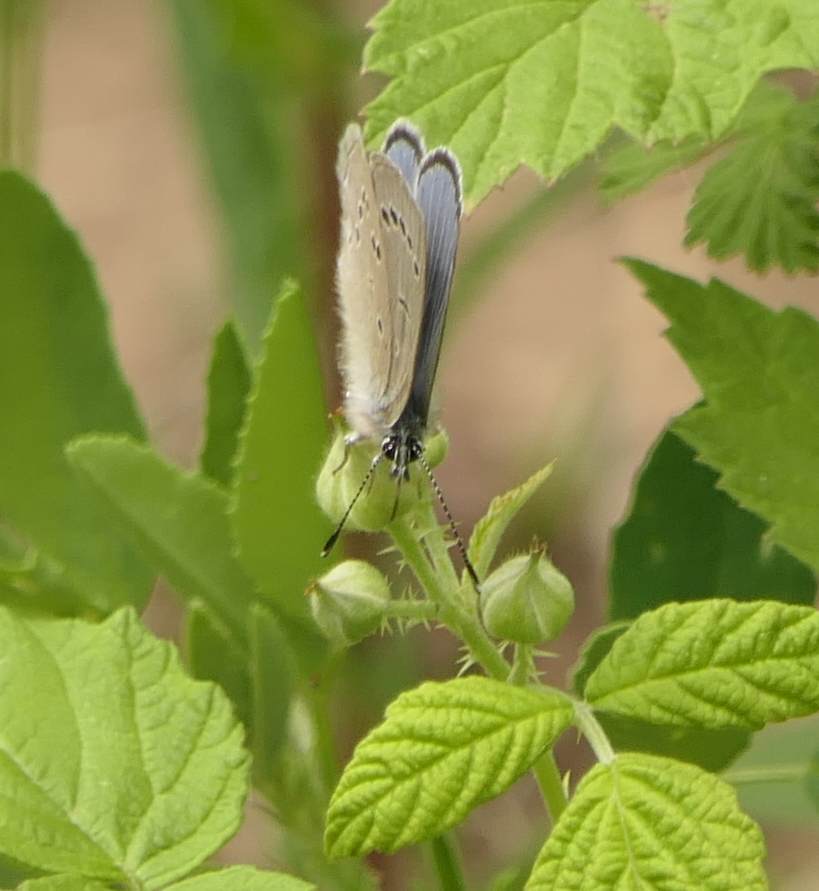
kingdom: Animalia
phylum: Arthropoda
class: Insecta
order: Lepidoptera
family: Lycaenidae
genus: Glaucopsyche
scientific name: Glaucopsyche lygdamus
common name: Silvery blue
